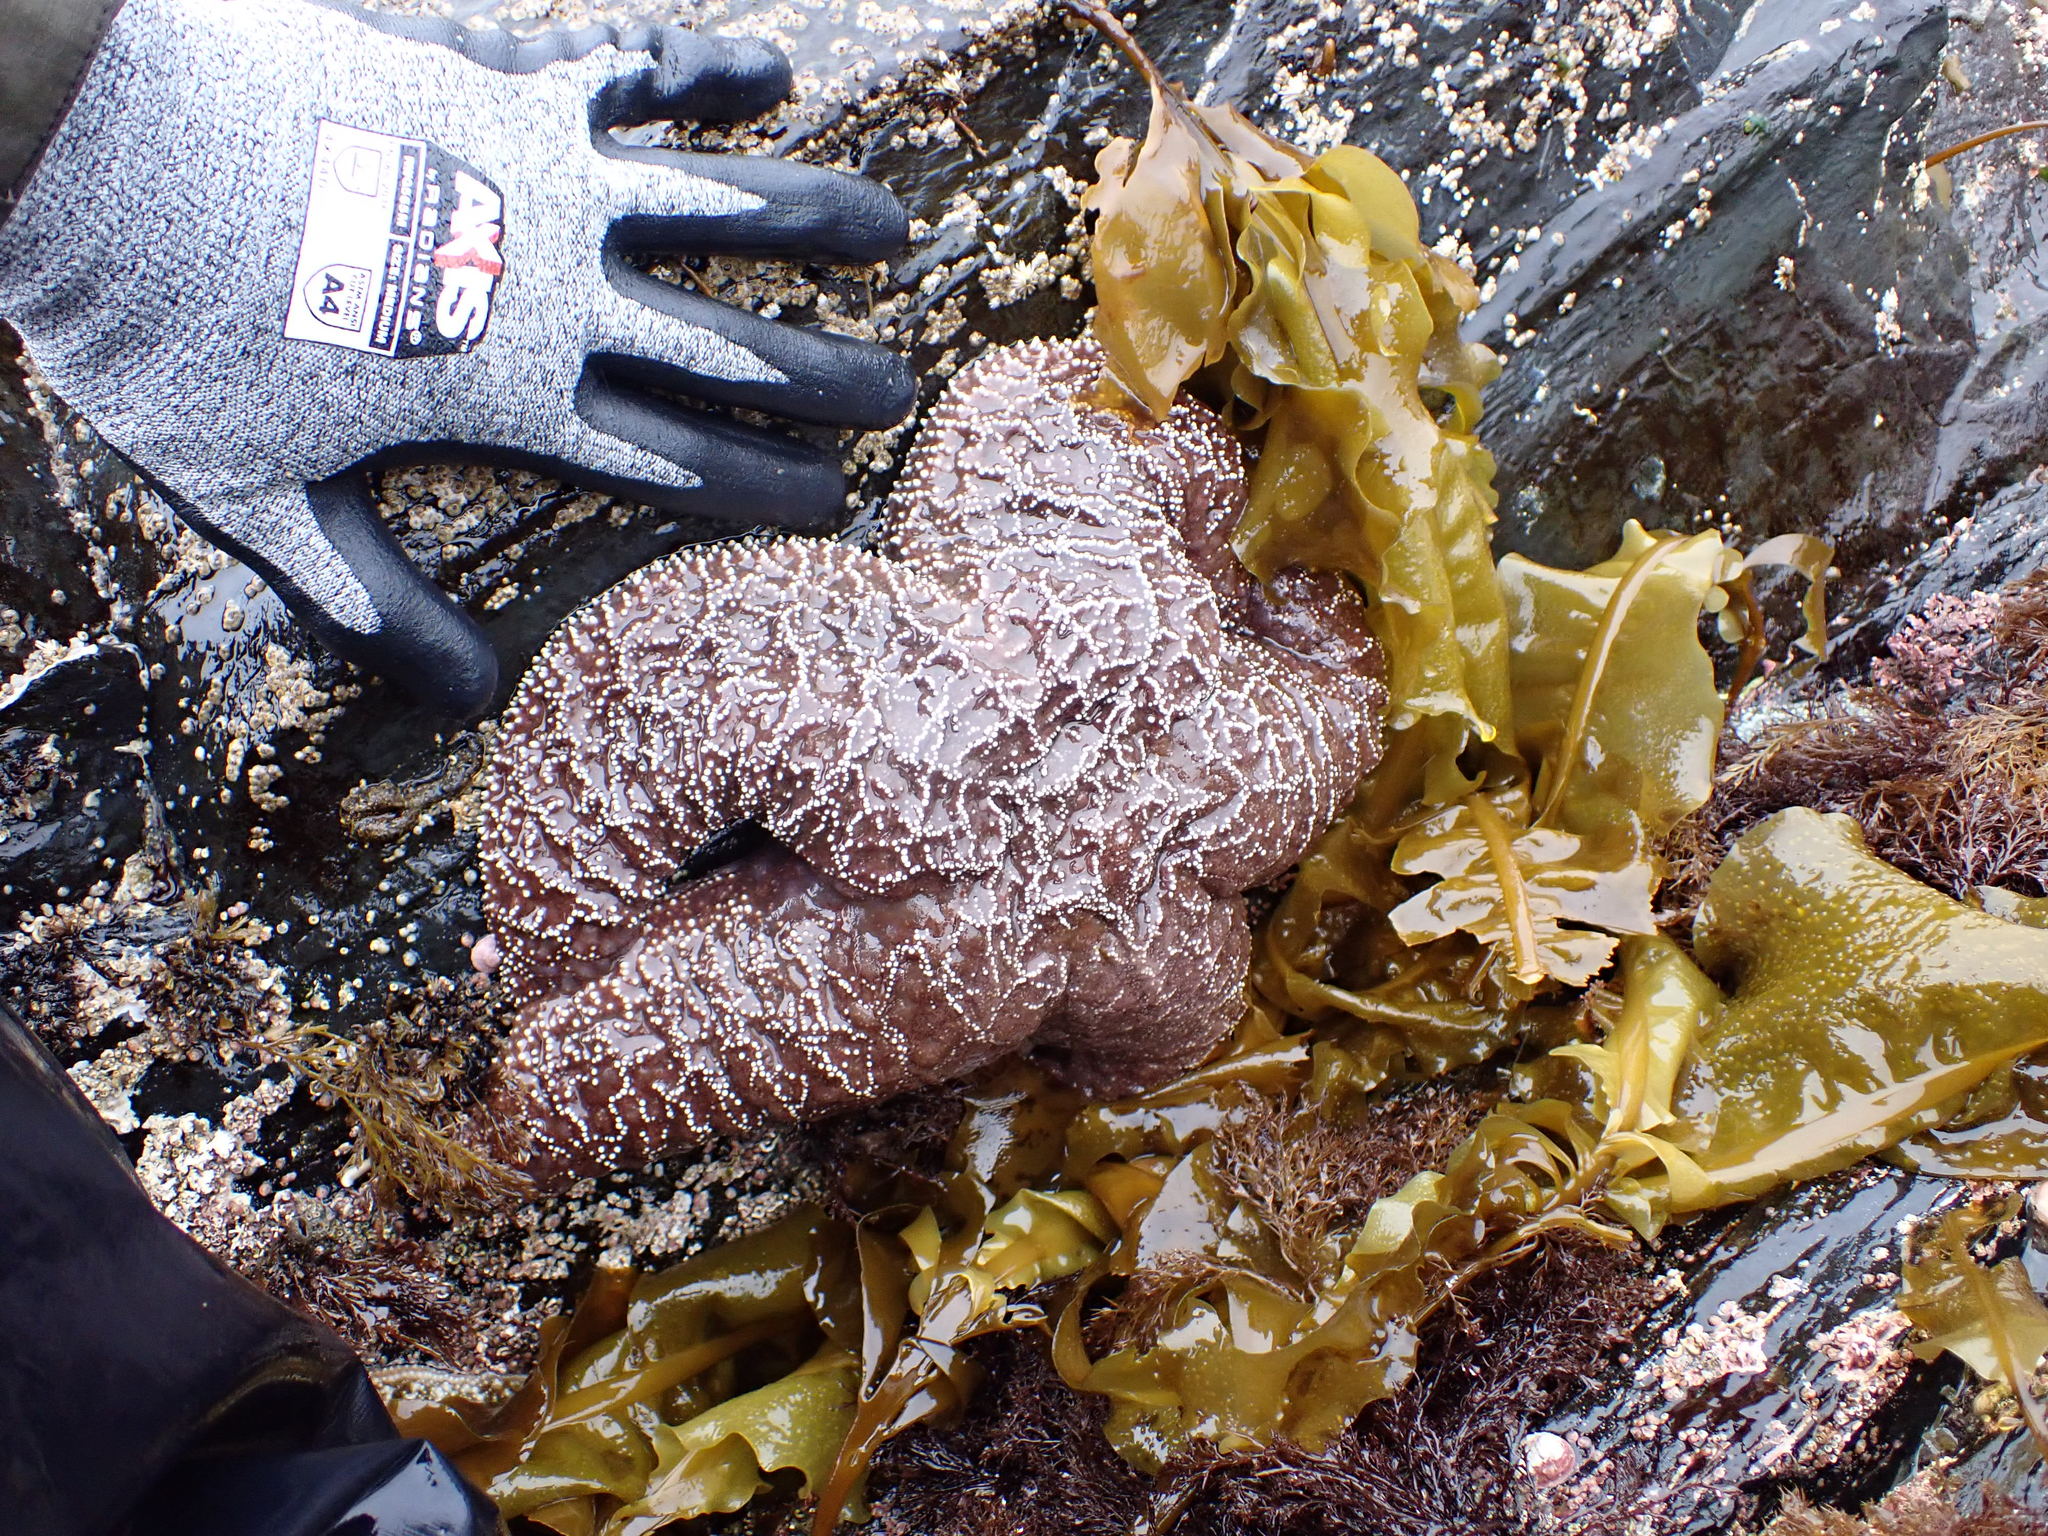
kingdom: Animalia
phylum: Echinodermata
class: Asteroidea
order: Forcipulatida
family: Asteriidae
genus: Pisaster
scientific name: Pisaster ochraceus
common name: Ochre stars
